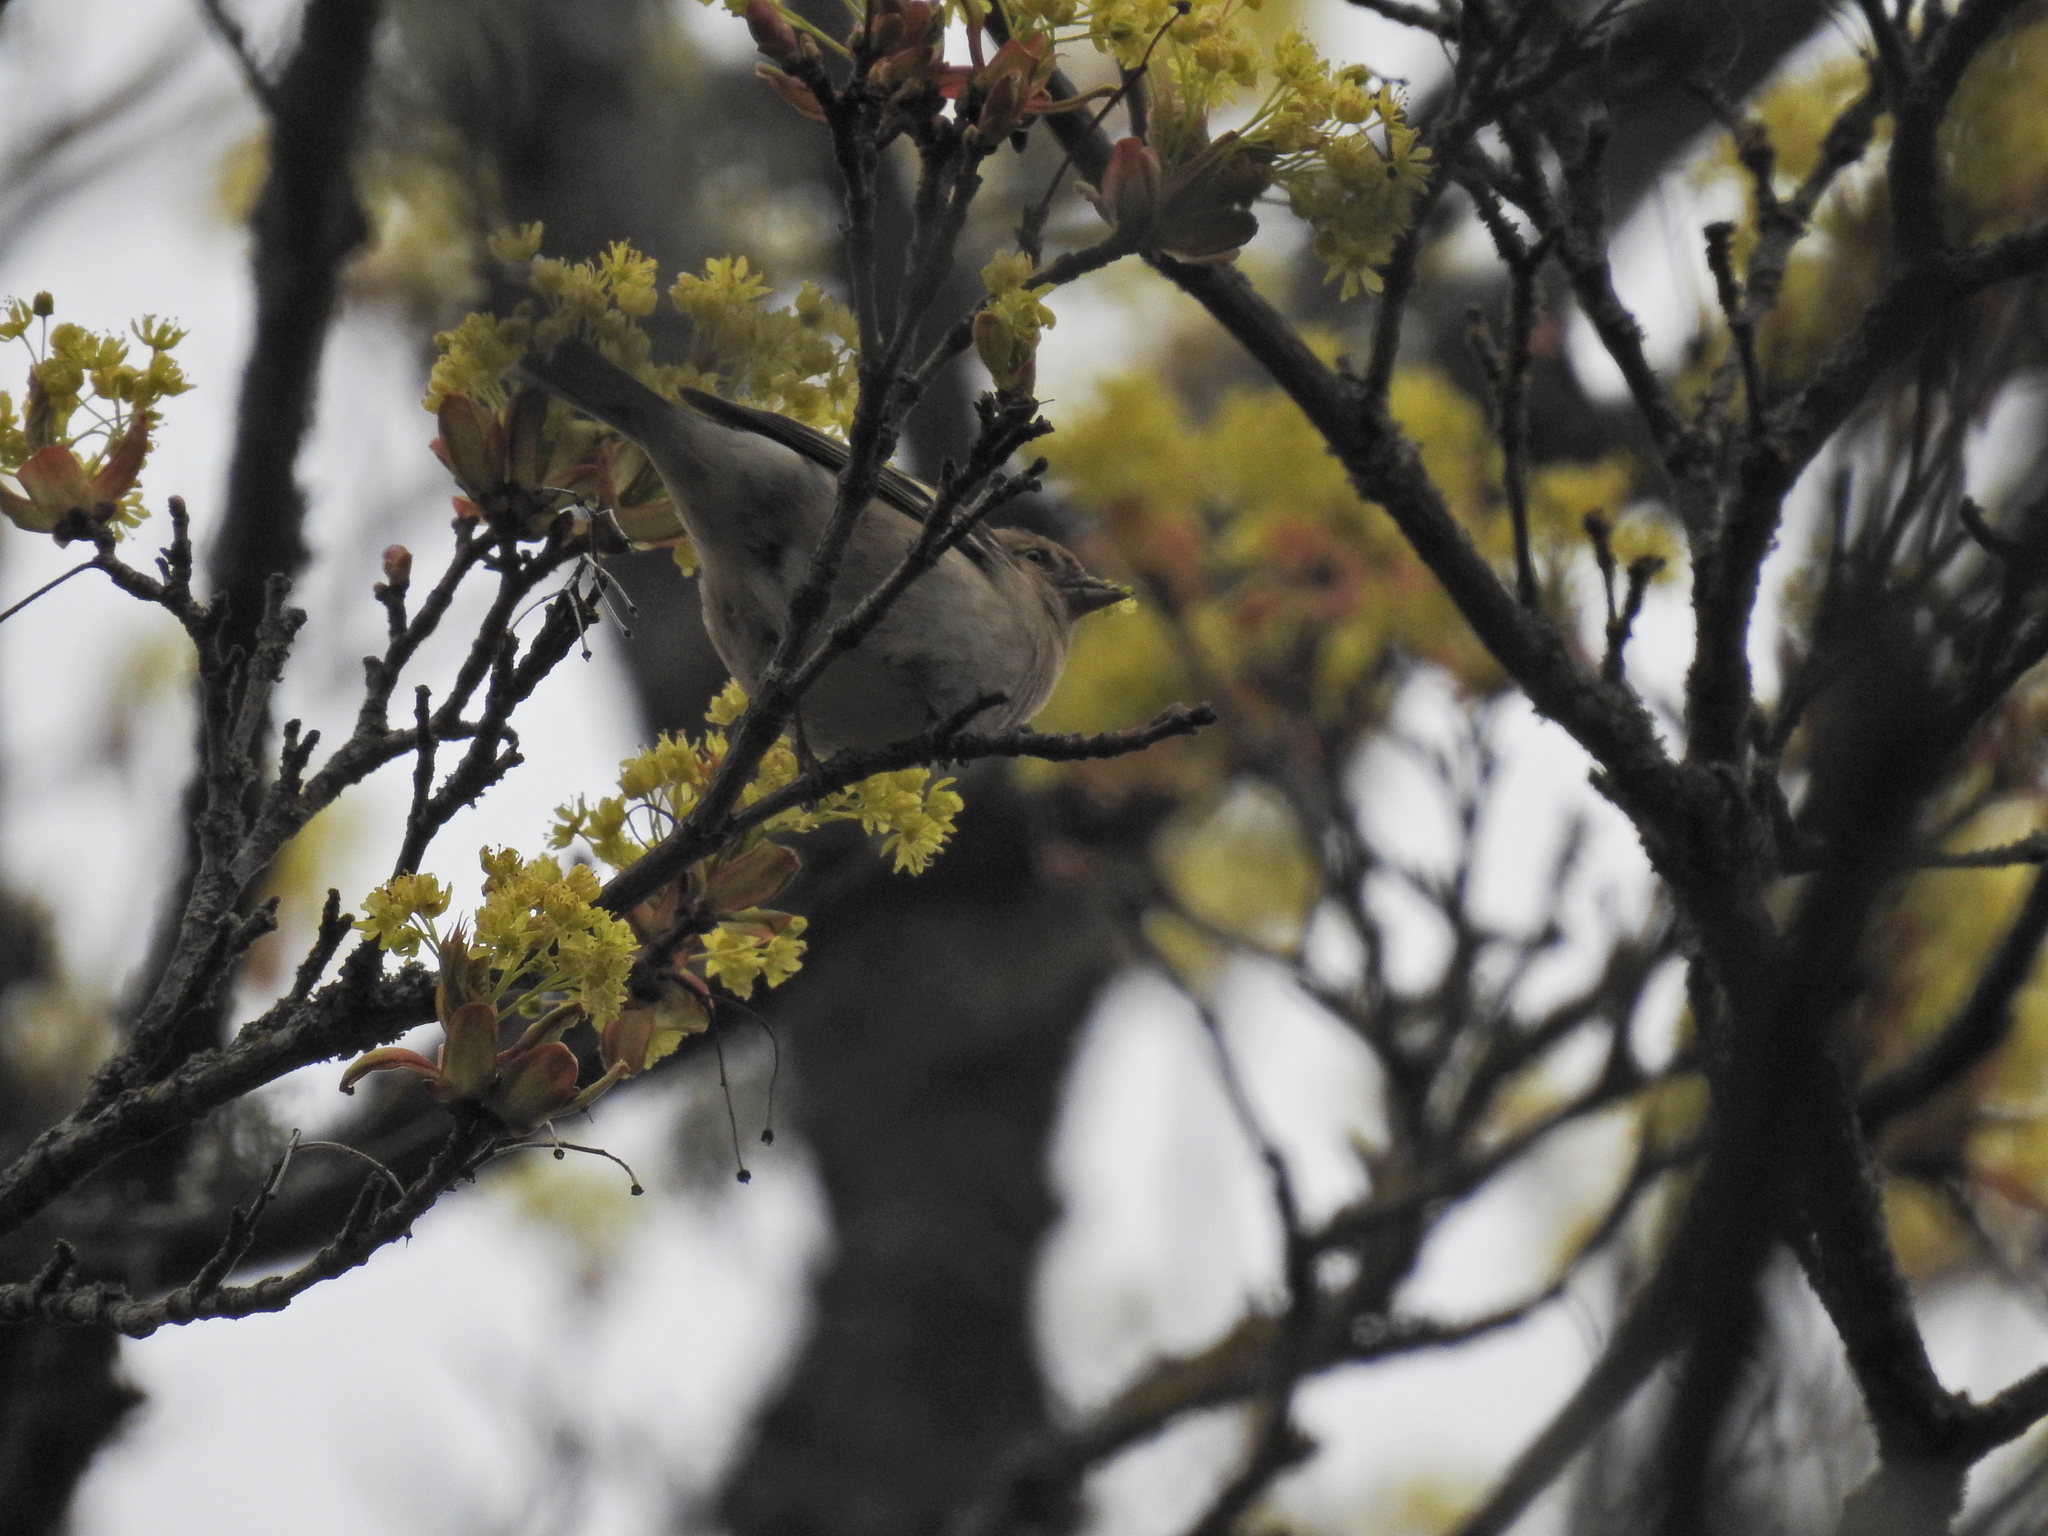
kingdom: Animalia
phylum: Chordata
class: Aves
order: Passeriformes
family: Fringillidae
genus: Fringilla
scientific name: Fringilla coelebs
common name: Common chaffinch
